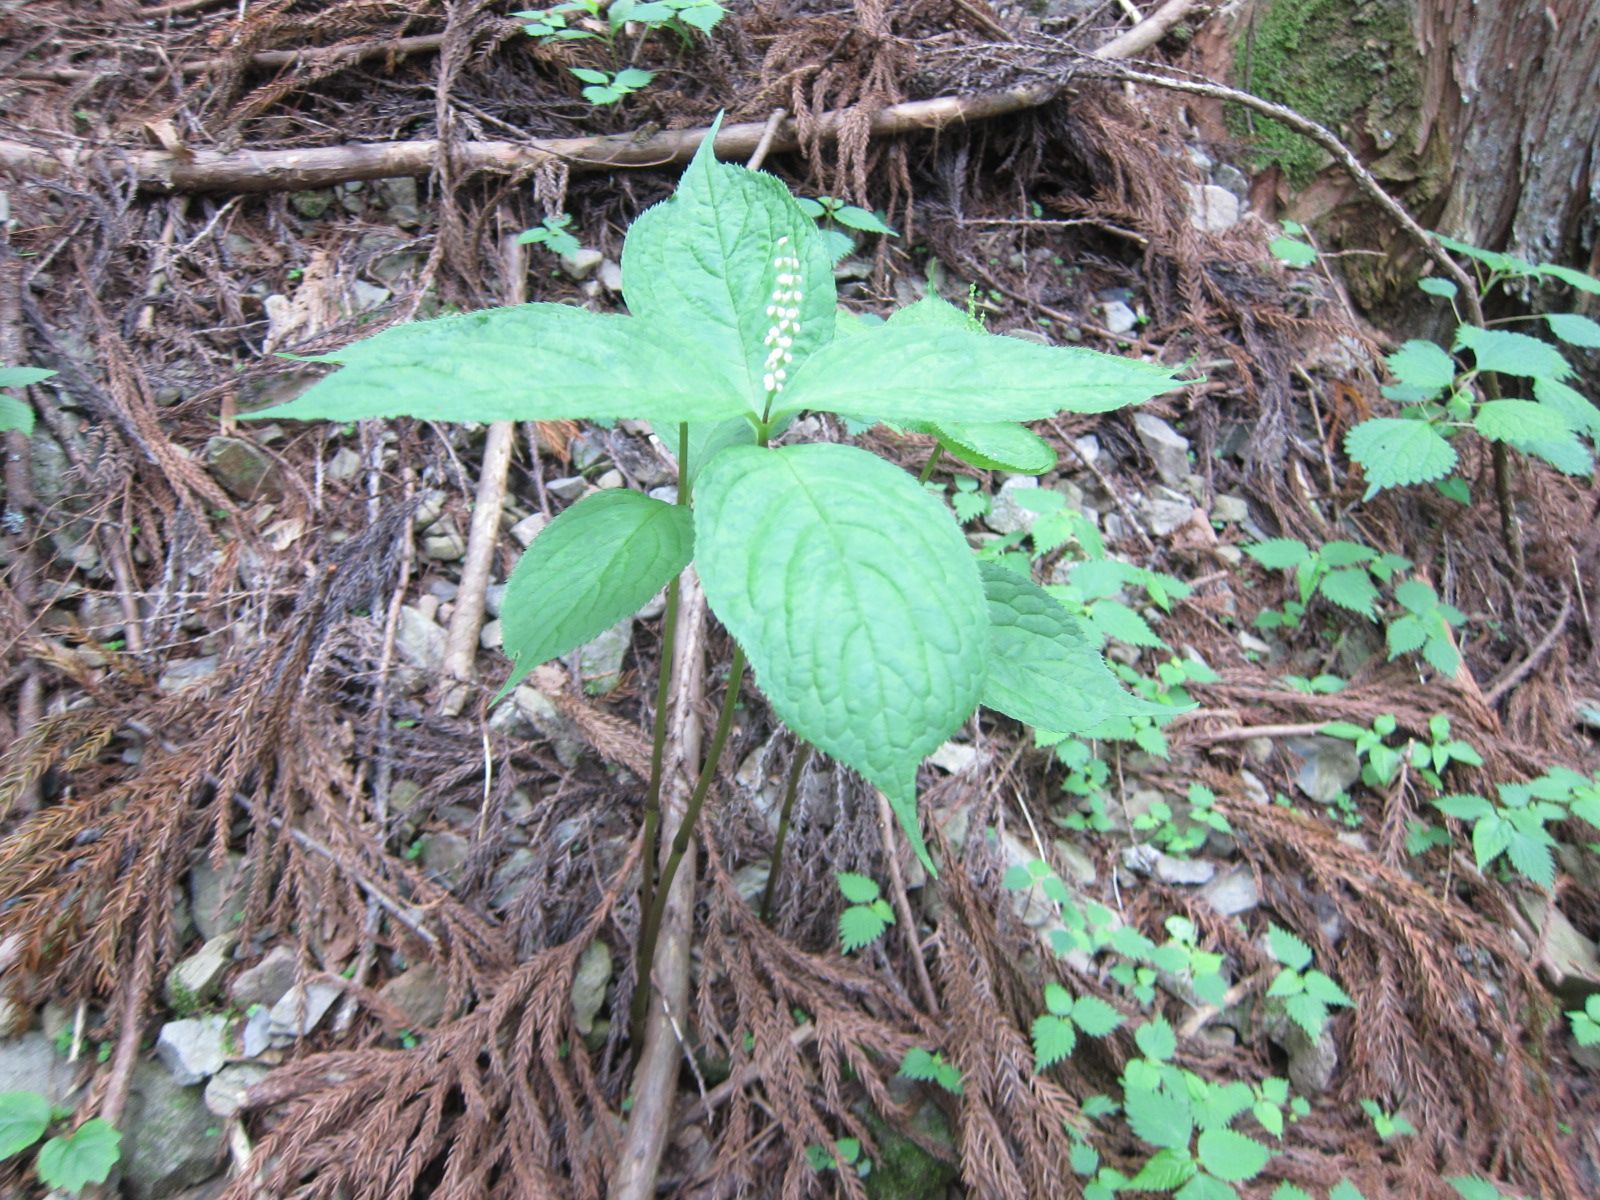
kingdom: Plantae
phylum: Tracheophyta
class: Magnoliopsida
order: Chloranthales
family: Chloranthaceae
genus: Chloranthus
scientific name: Chloranthus serratus
